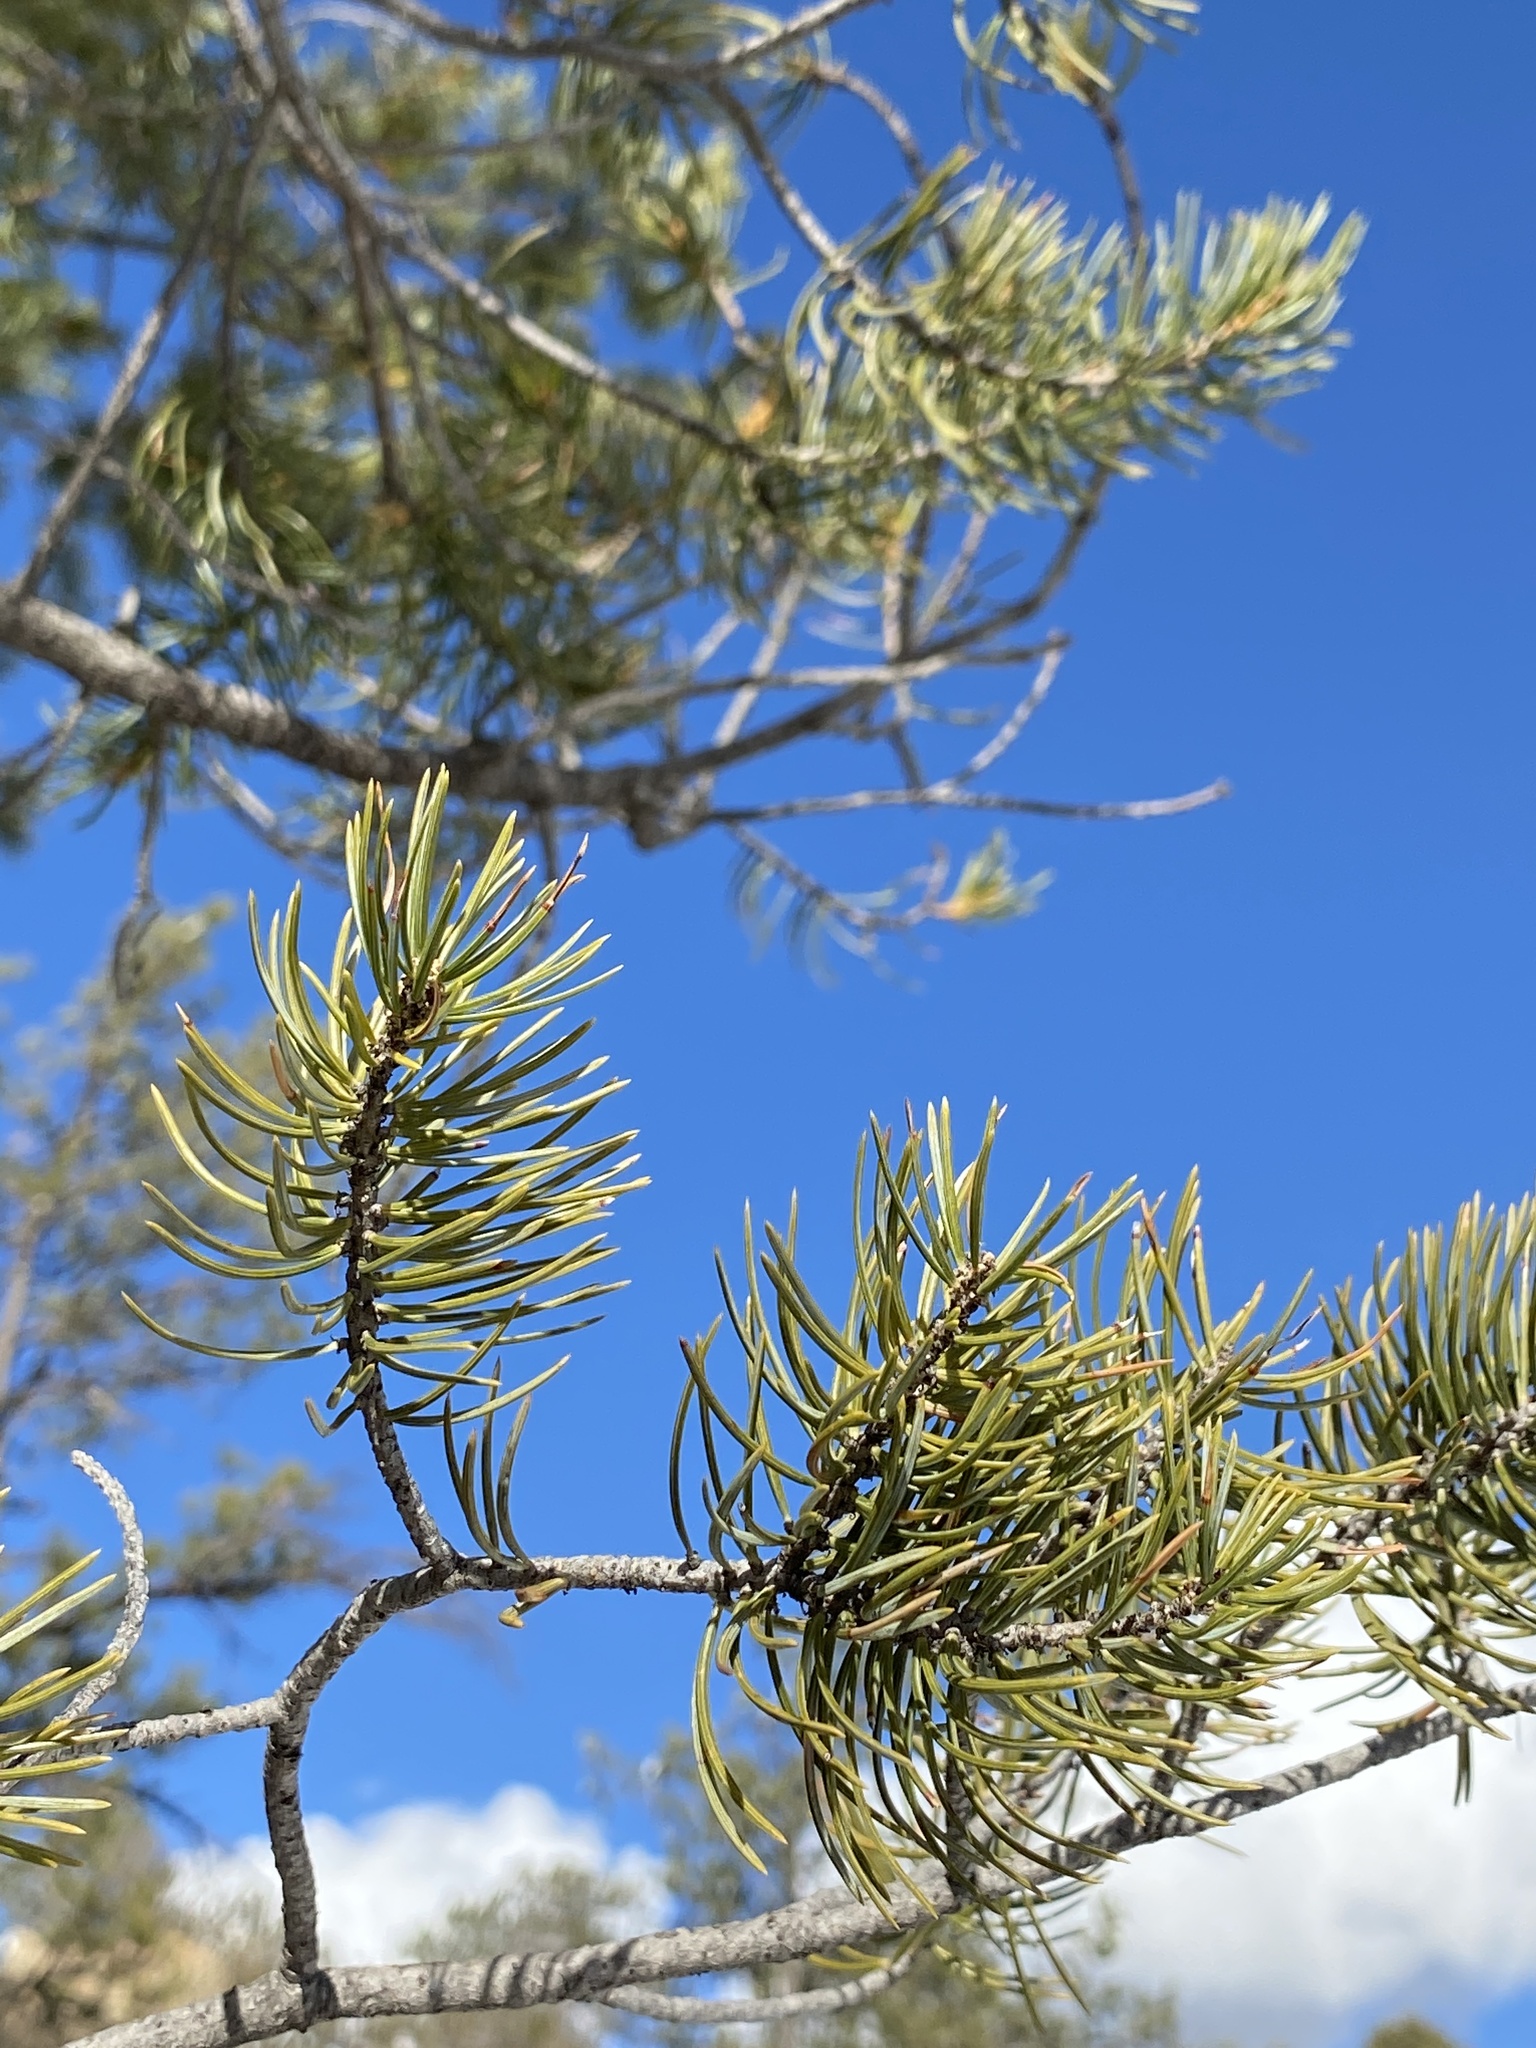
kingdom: Plantae
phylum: Tracheophyta
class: Pinopsida
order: Pinales
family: Pinaceae
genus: Pinus
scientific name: Pinus edulis
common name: Colorado pinyon
